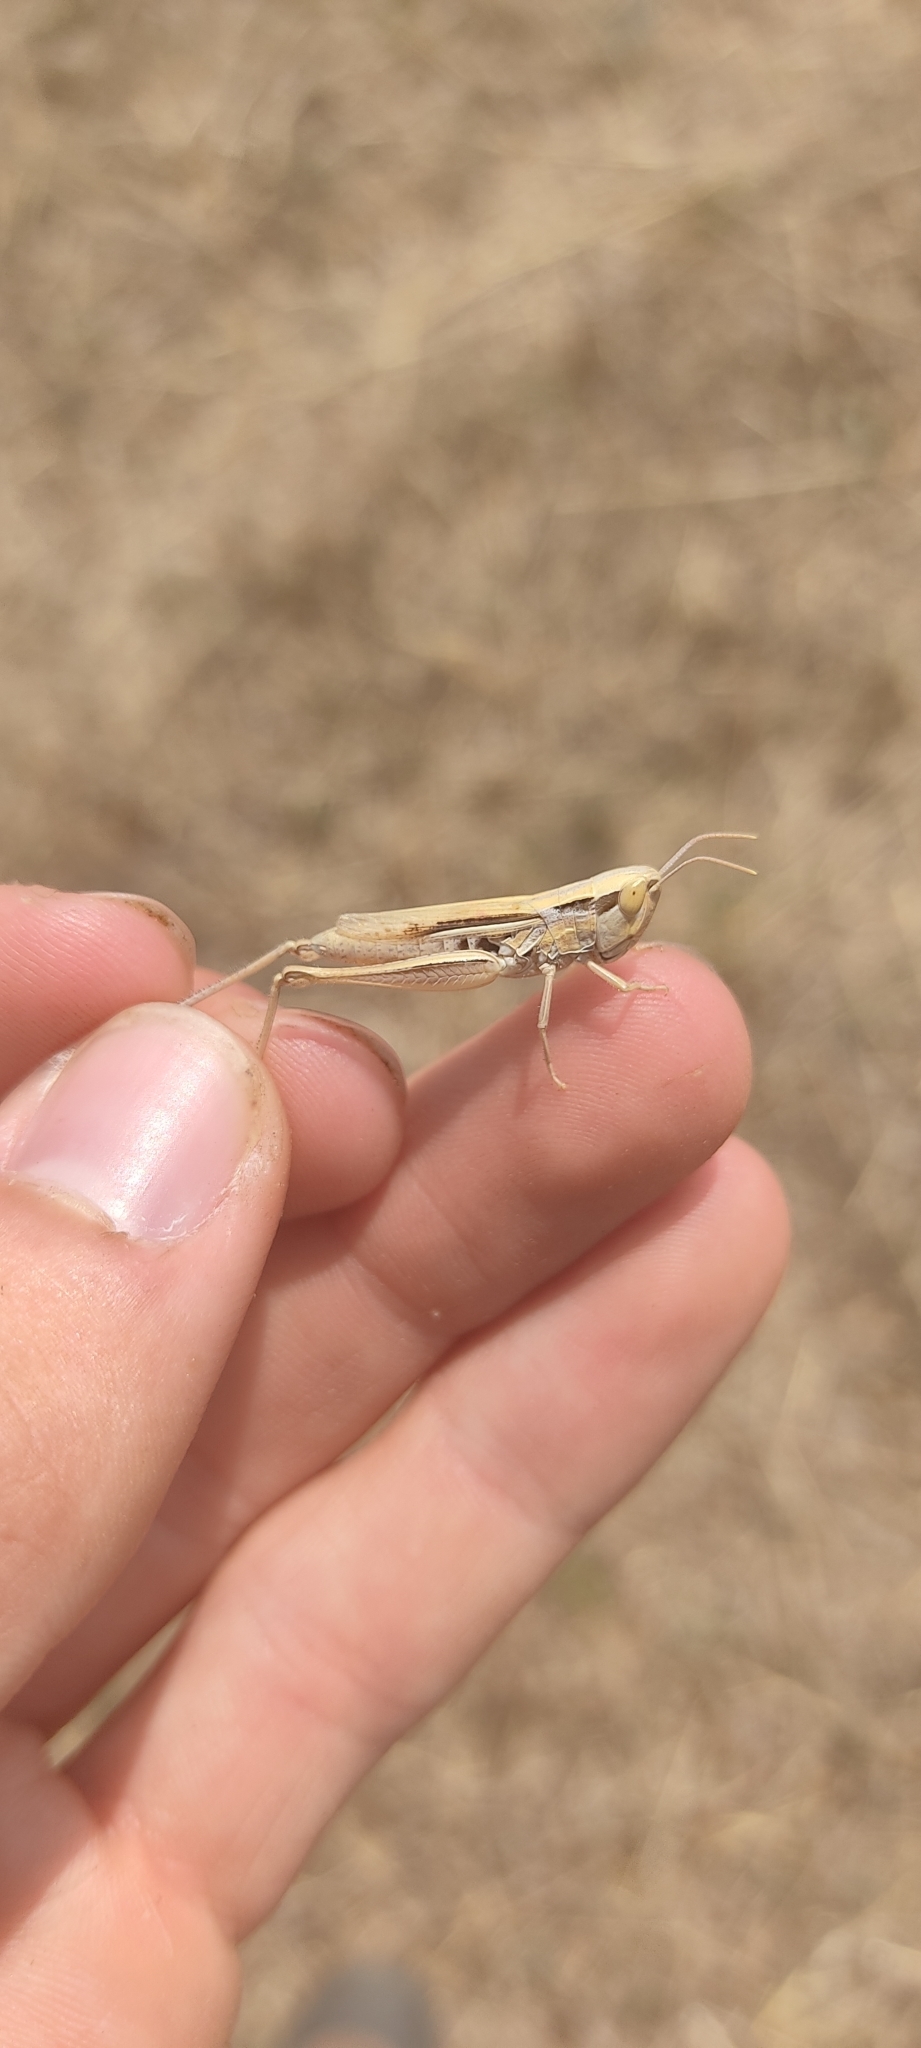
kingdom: Animalia
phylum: Arthropoda
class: Insecta
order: Orthoptera
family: Acrididae
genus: Euchorthippus
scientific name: Euchorthippus elegantulus
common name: Elegant straw grasshopper
